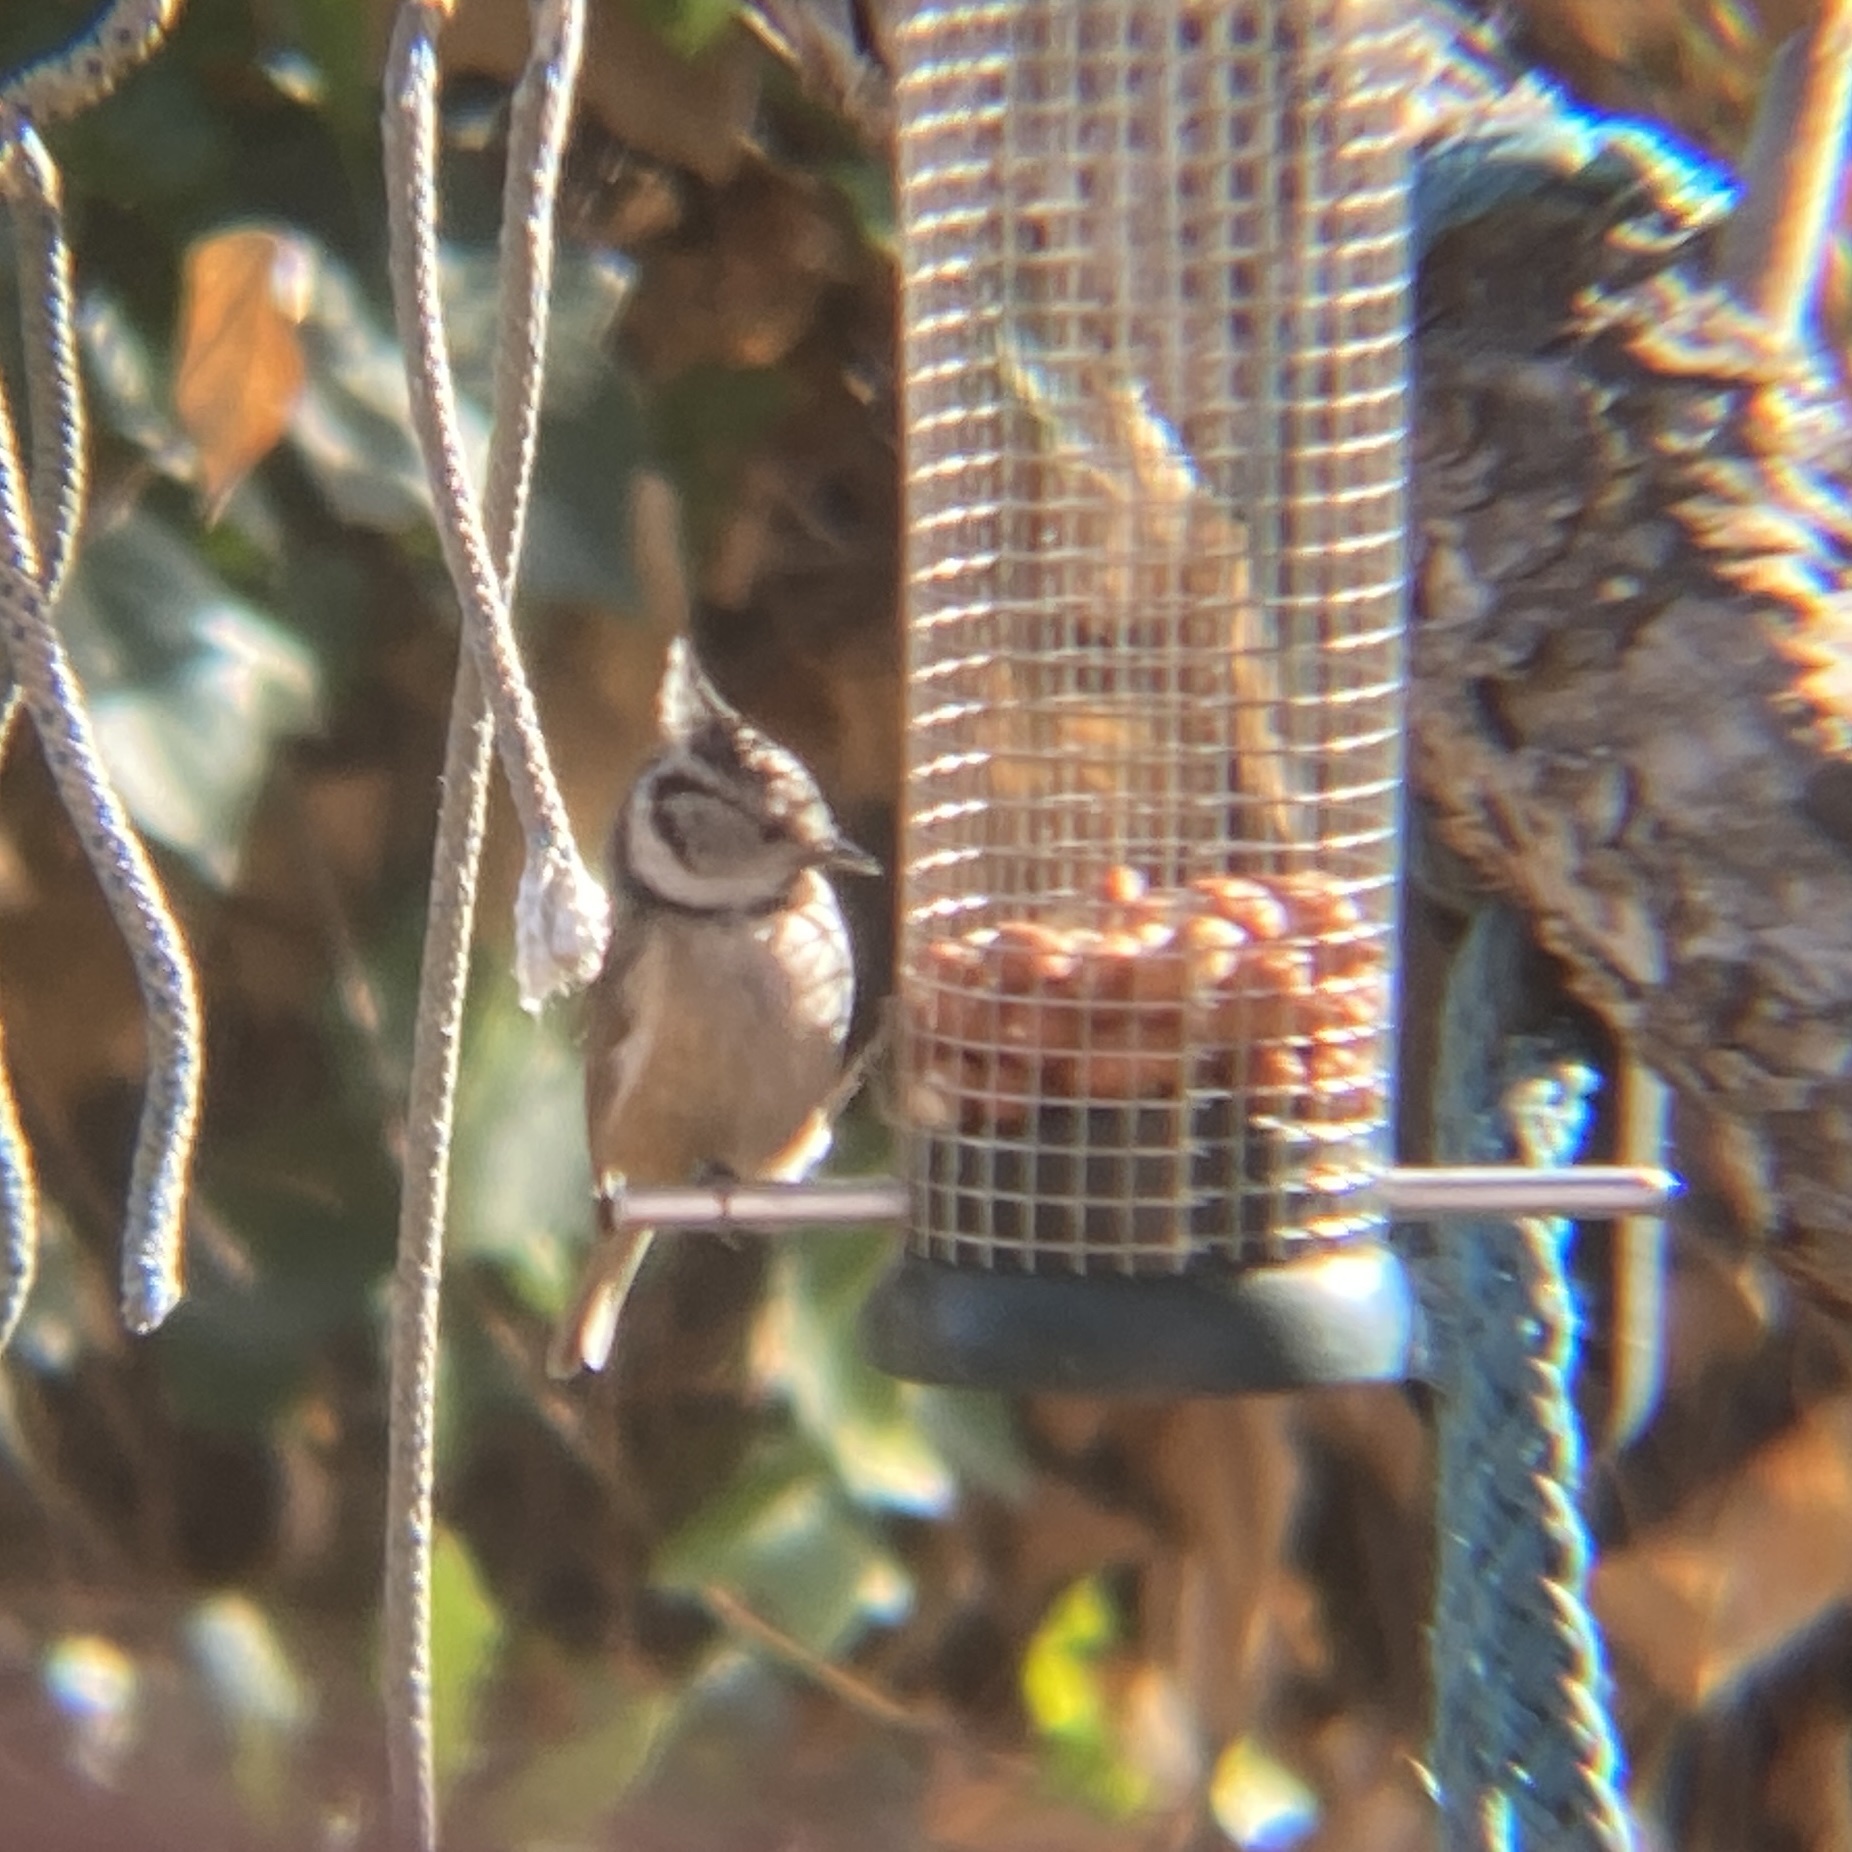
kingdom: Animalia
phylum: Chordata
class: Aves
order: Passeriformes
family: Paridae
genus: Lophophanes
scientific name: Lophophanes cristatus
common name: European crested tit
